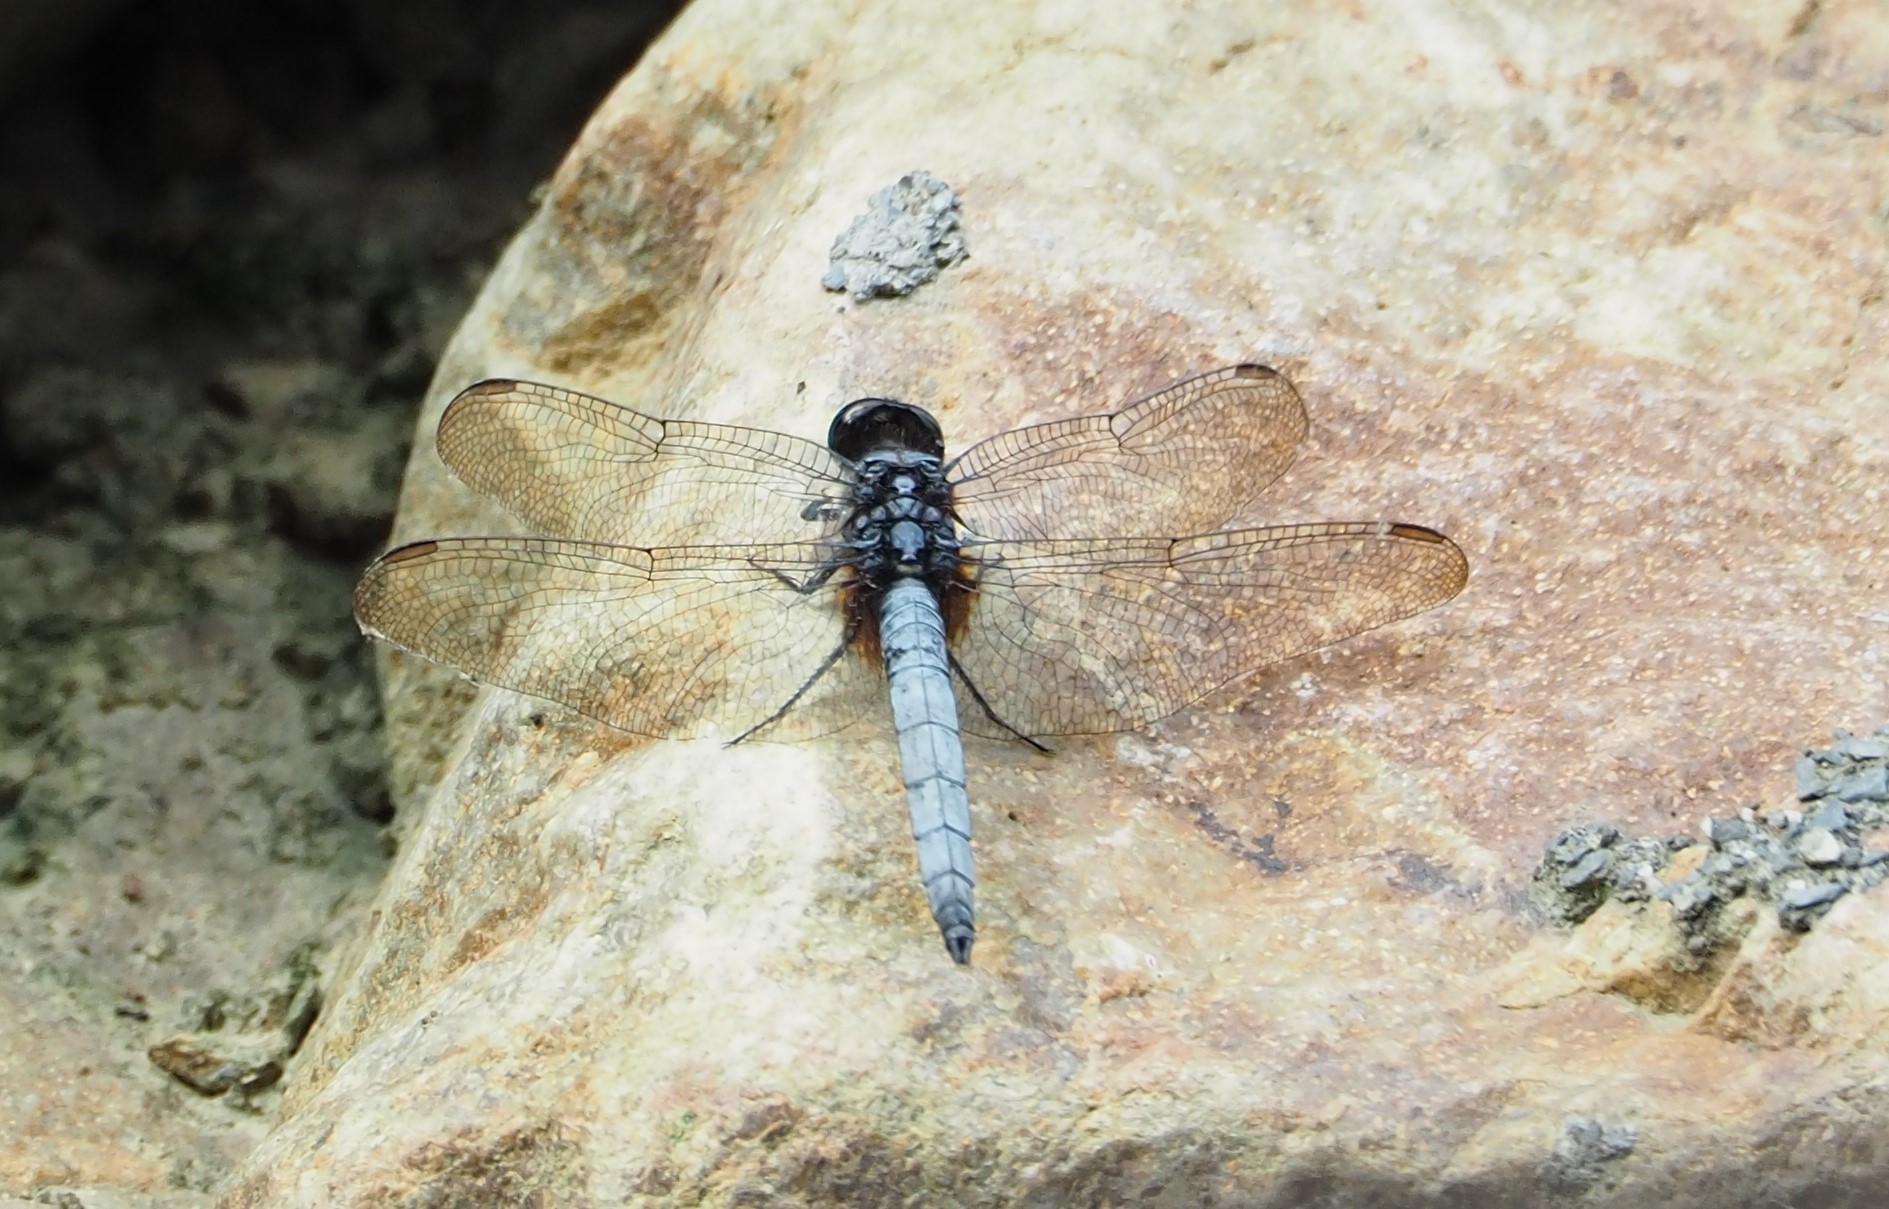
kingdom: Animalia
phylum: Arthropoda
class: Insecta
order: Odonata
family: Libellulidae
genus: Orthetrum
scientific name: Orthetrum glaucum
